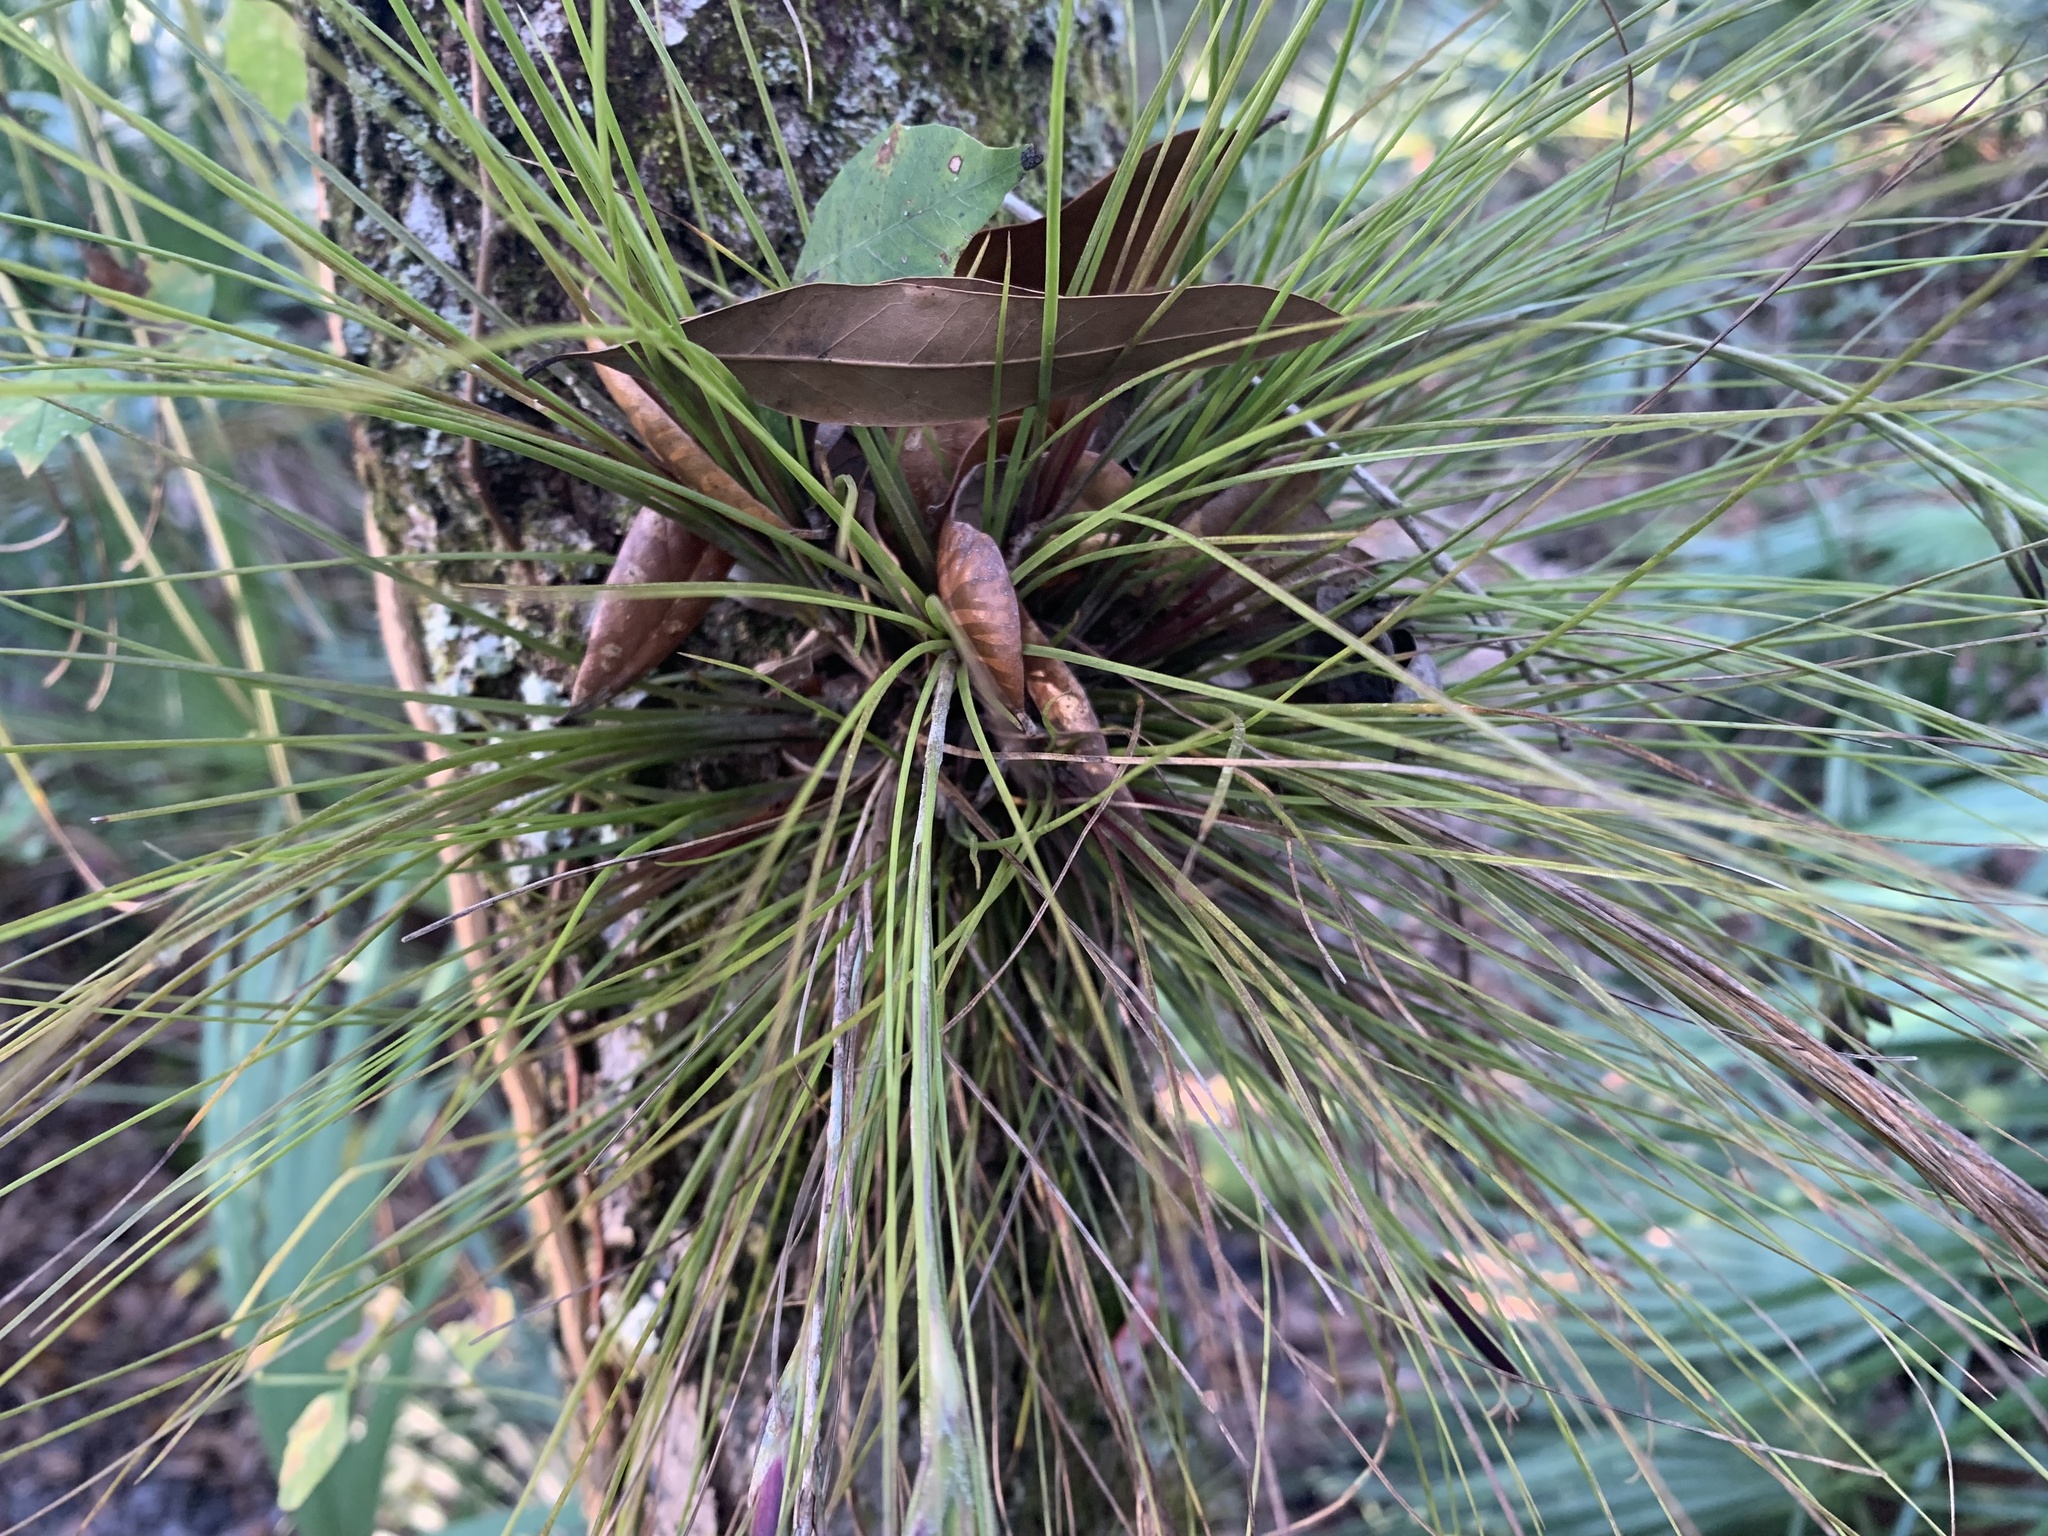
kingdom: Plantae
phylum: Tracheophyta
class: Liliopsida
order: Poales
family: Bromeliaceae
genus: Tillandsia
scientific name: Tillandsia setacea
